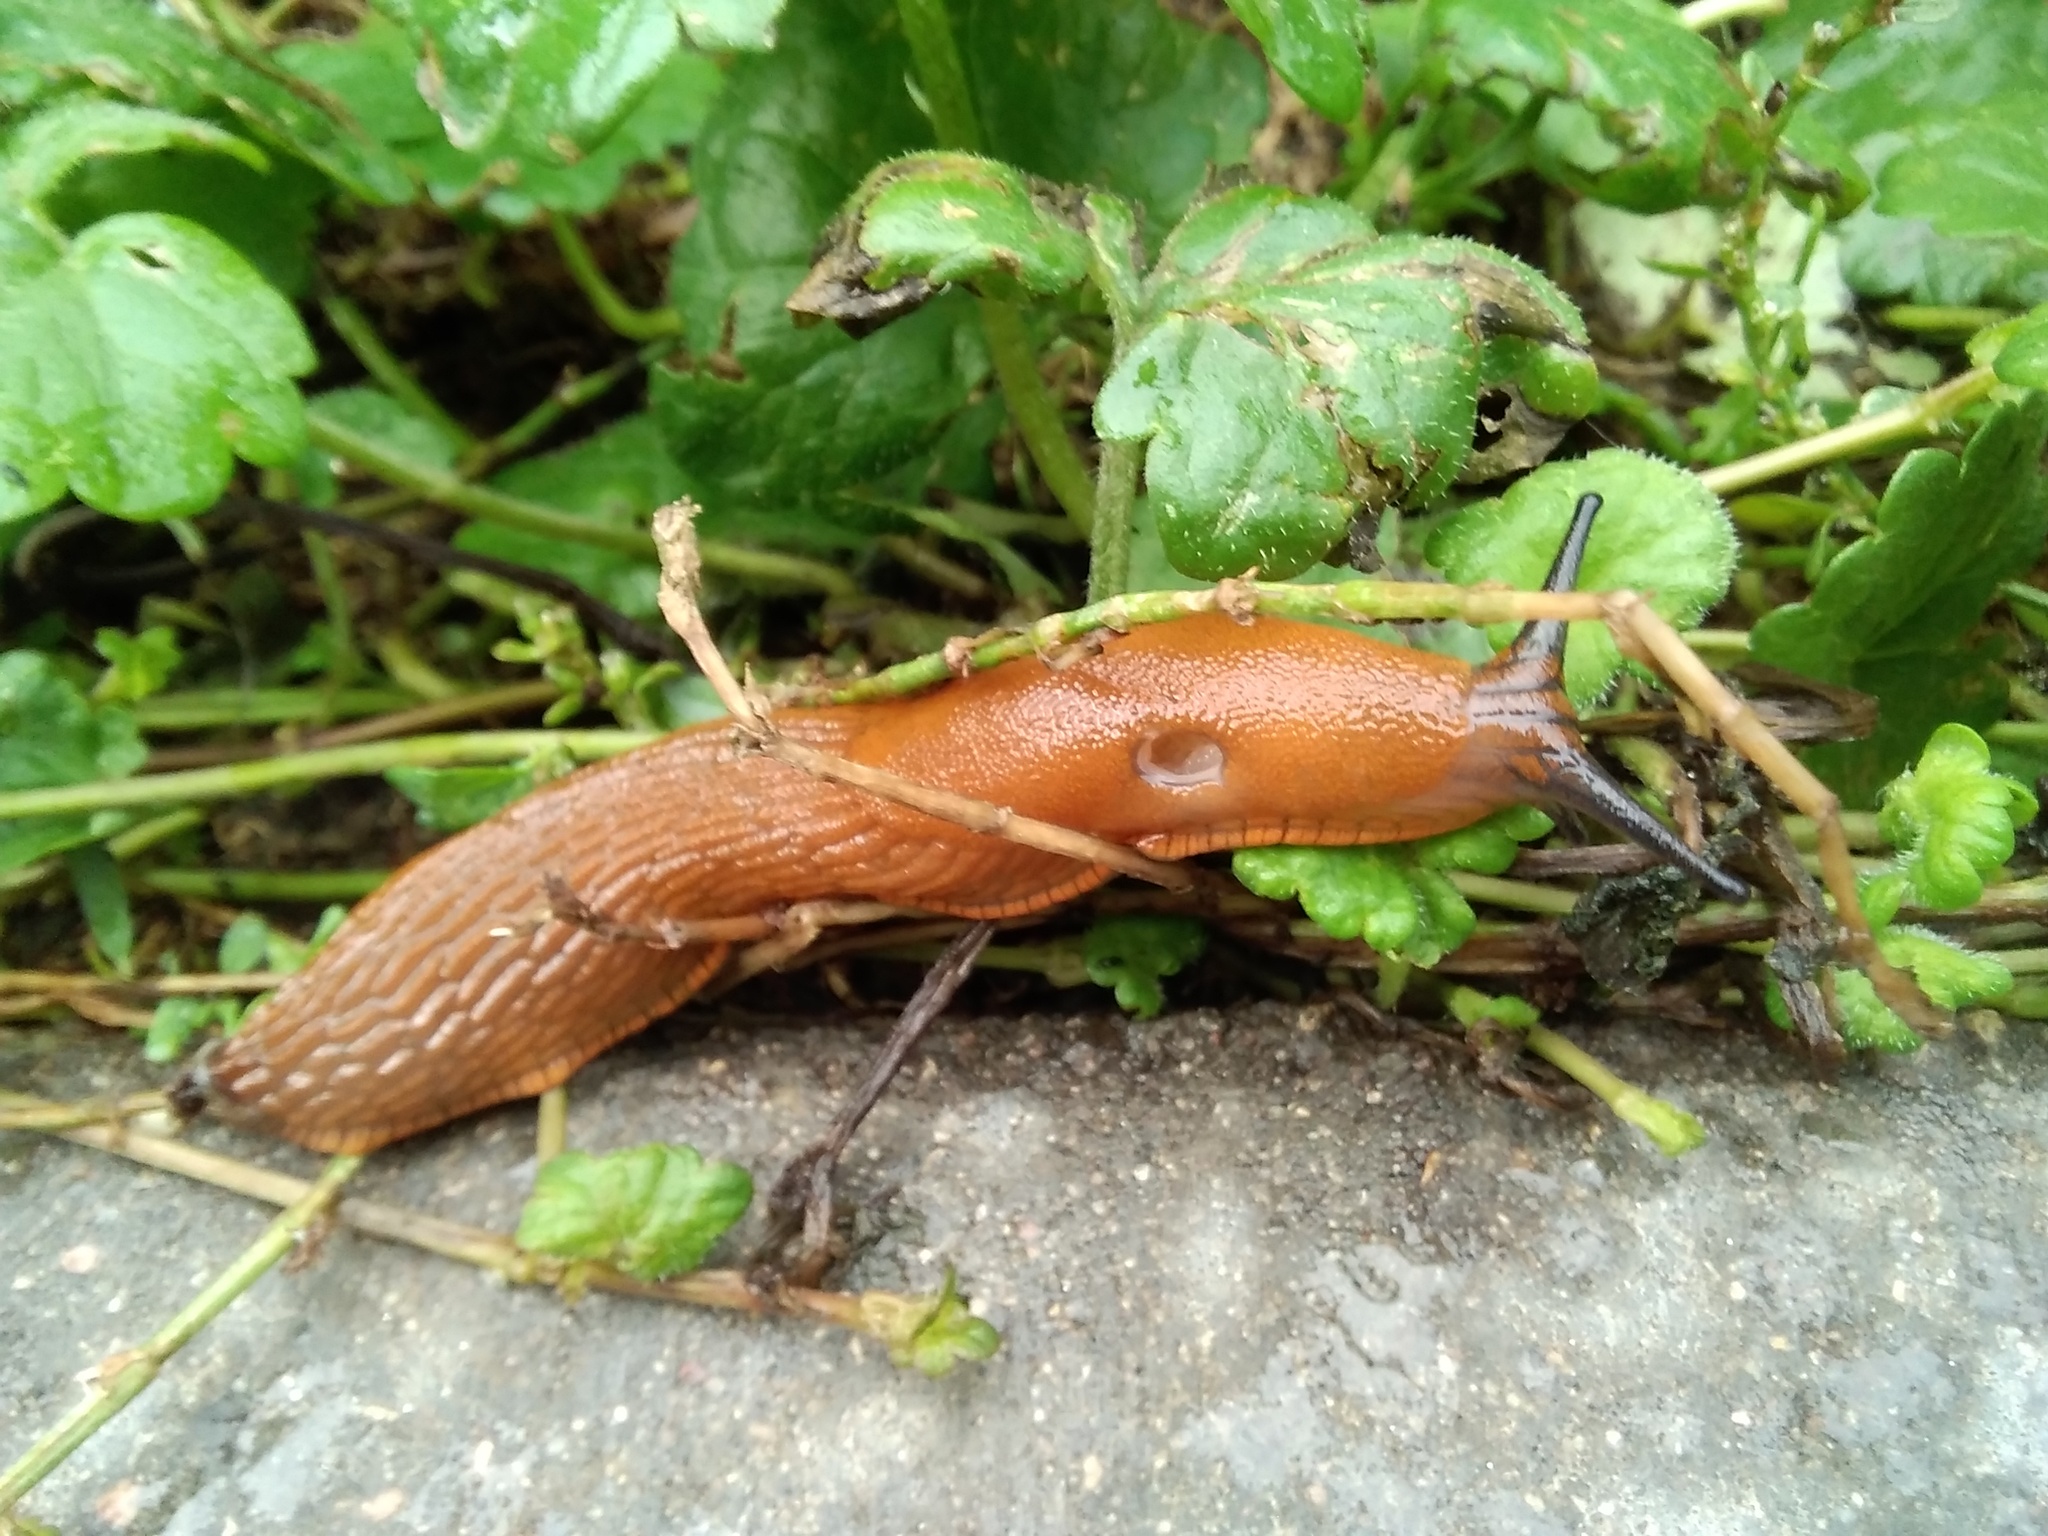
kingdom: Animalia
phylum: Mollusca
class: Gastropoda
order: Stylommatophora
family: Arionidae
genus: Arion
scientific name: Arion
